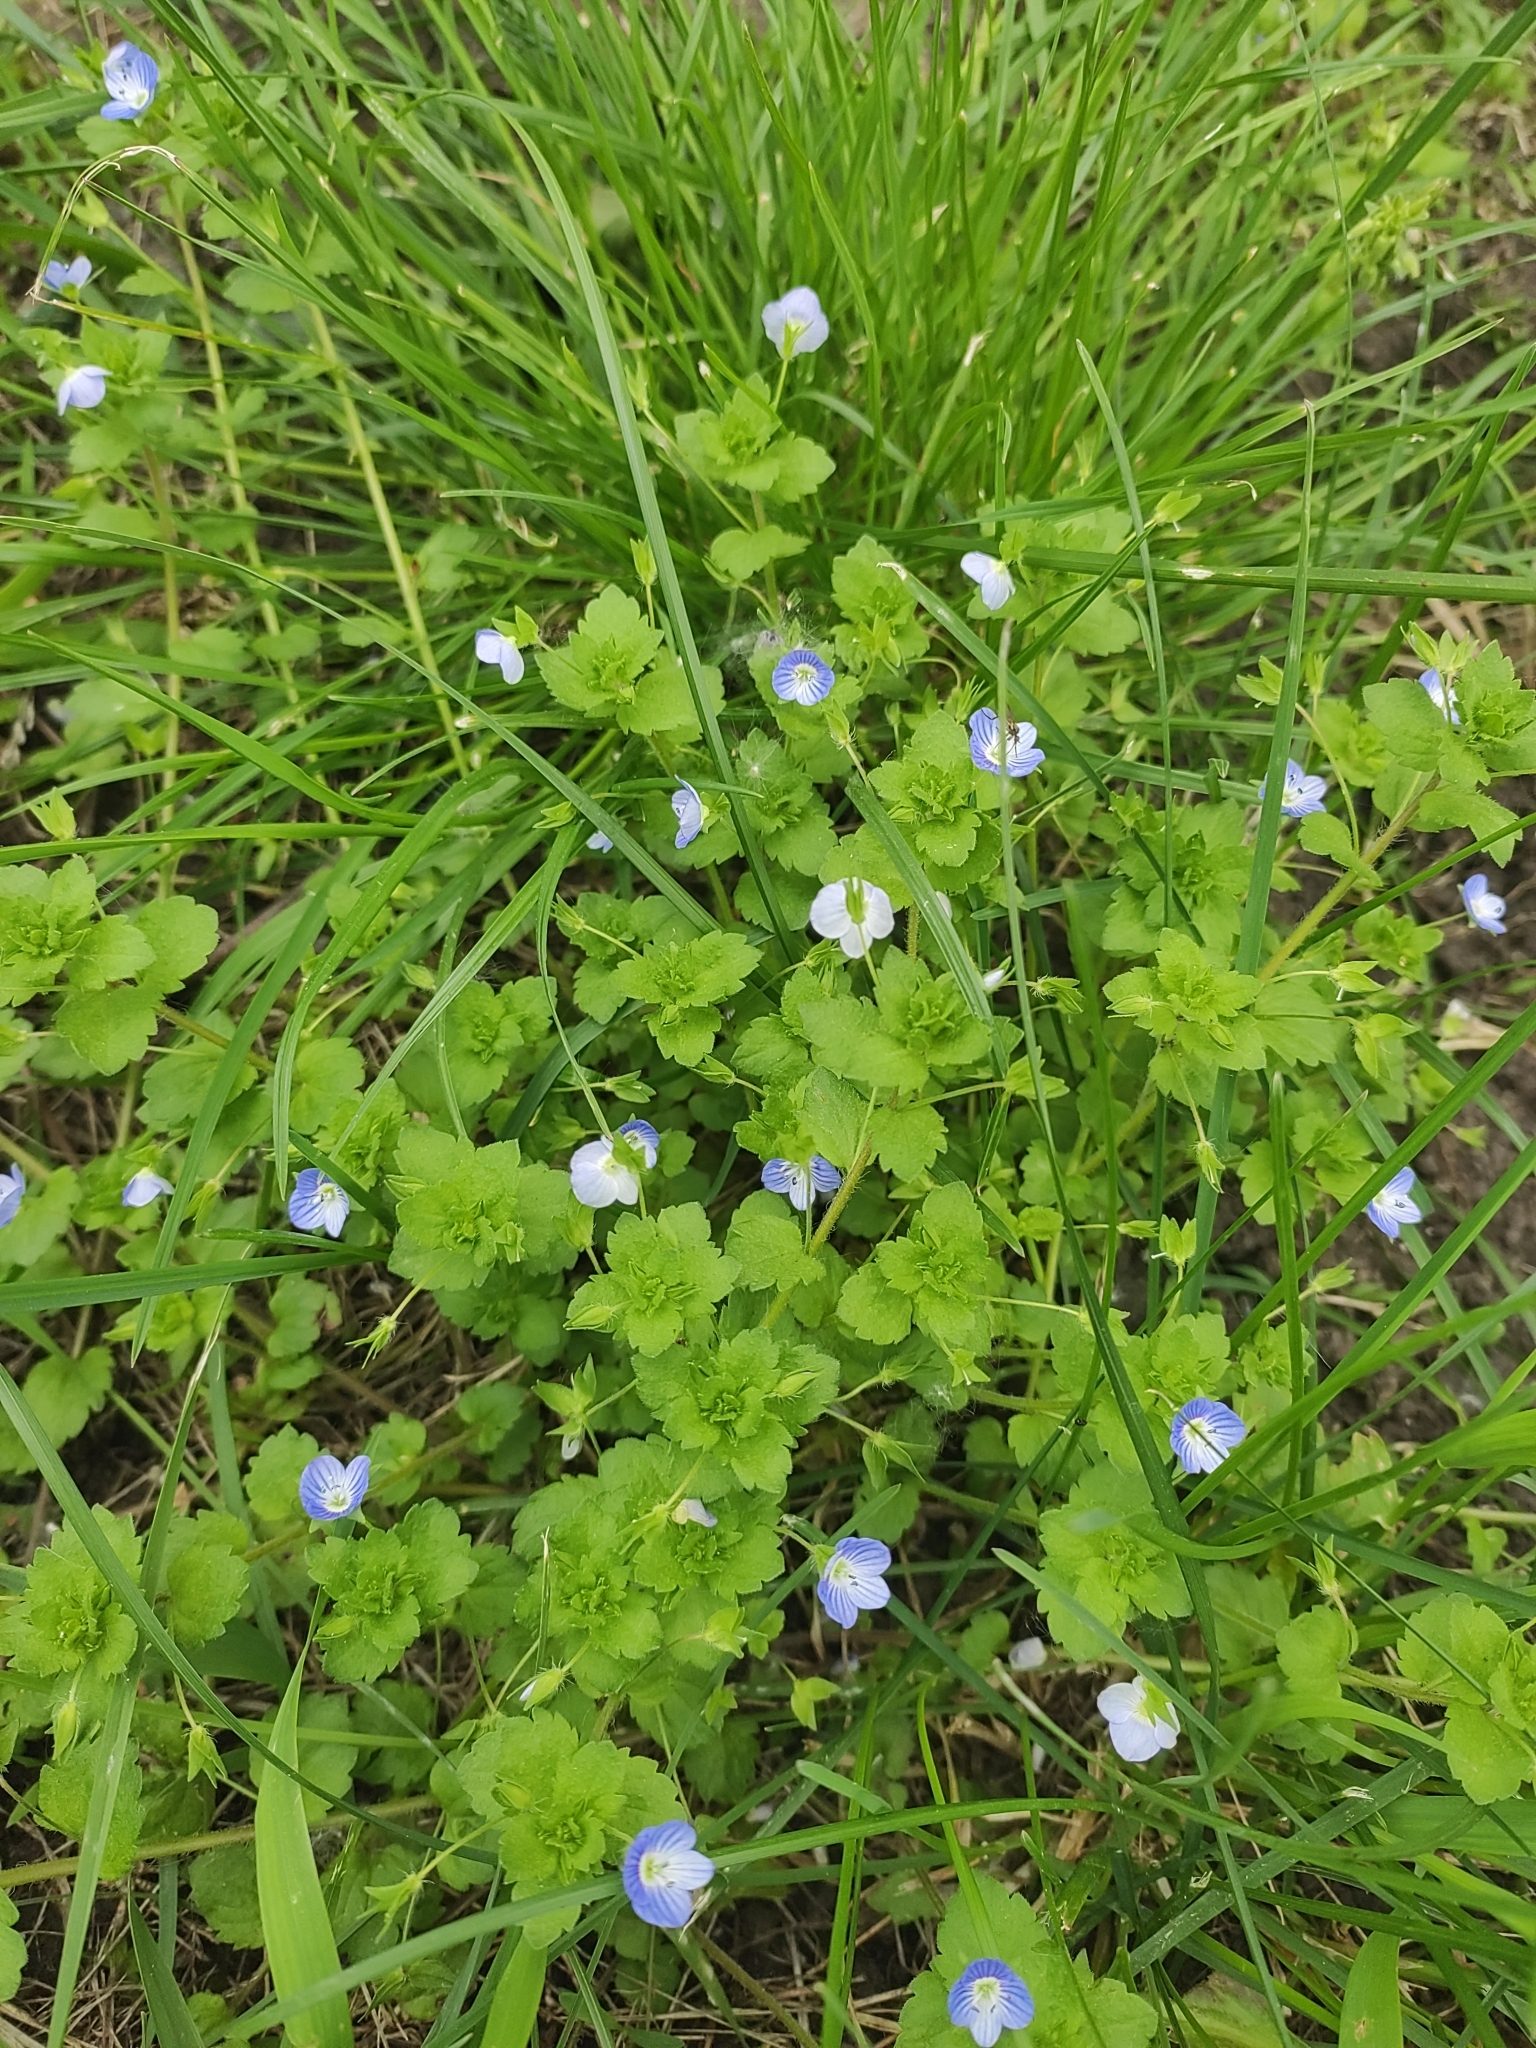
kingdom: Plantae
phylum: Tracheophyta
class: Magnoliopsida
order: Lamiales
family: Plantaginaceae
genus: Veronica
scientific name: Veronica persica
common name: Common field-speedwell
